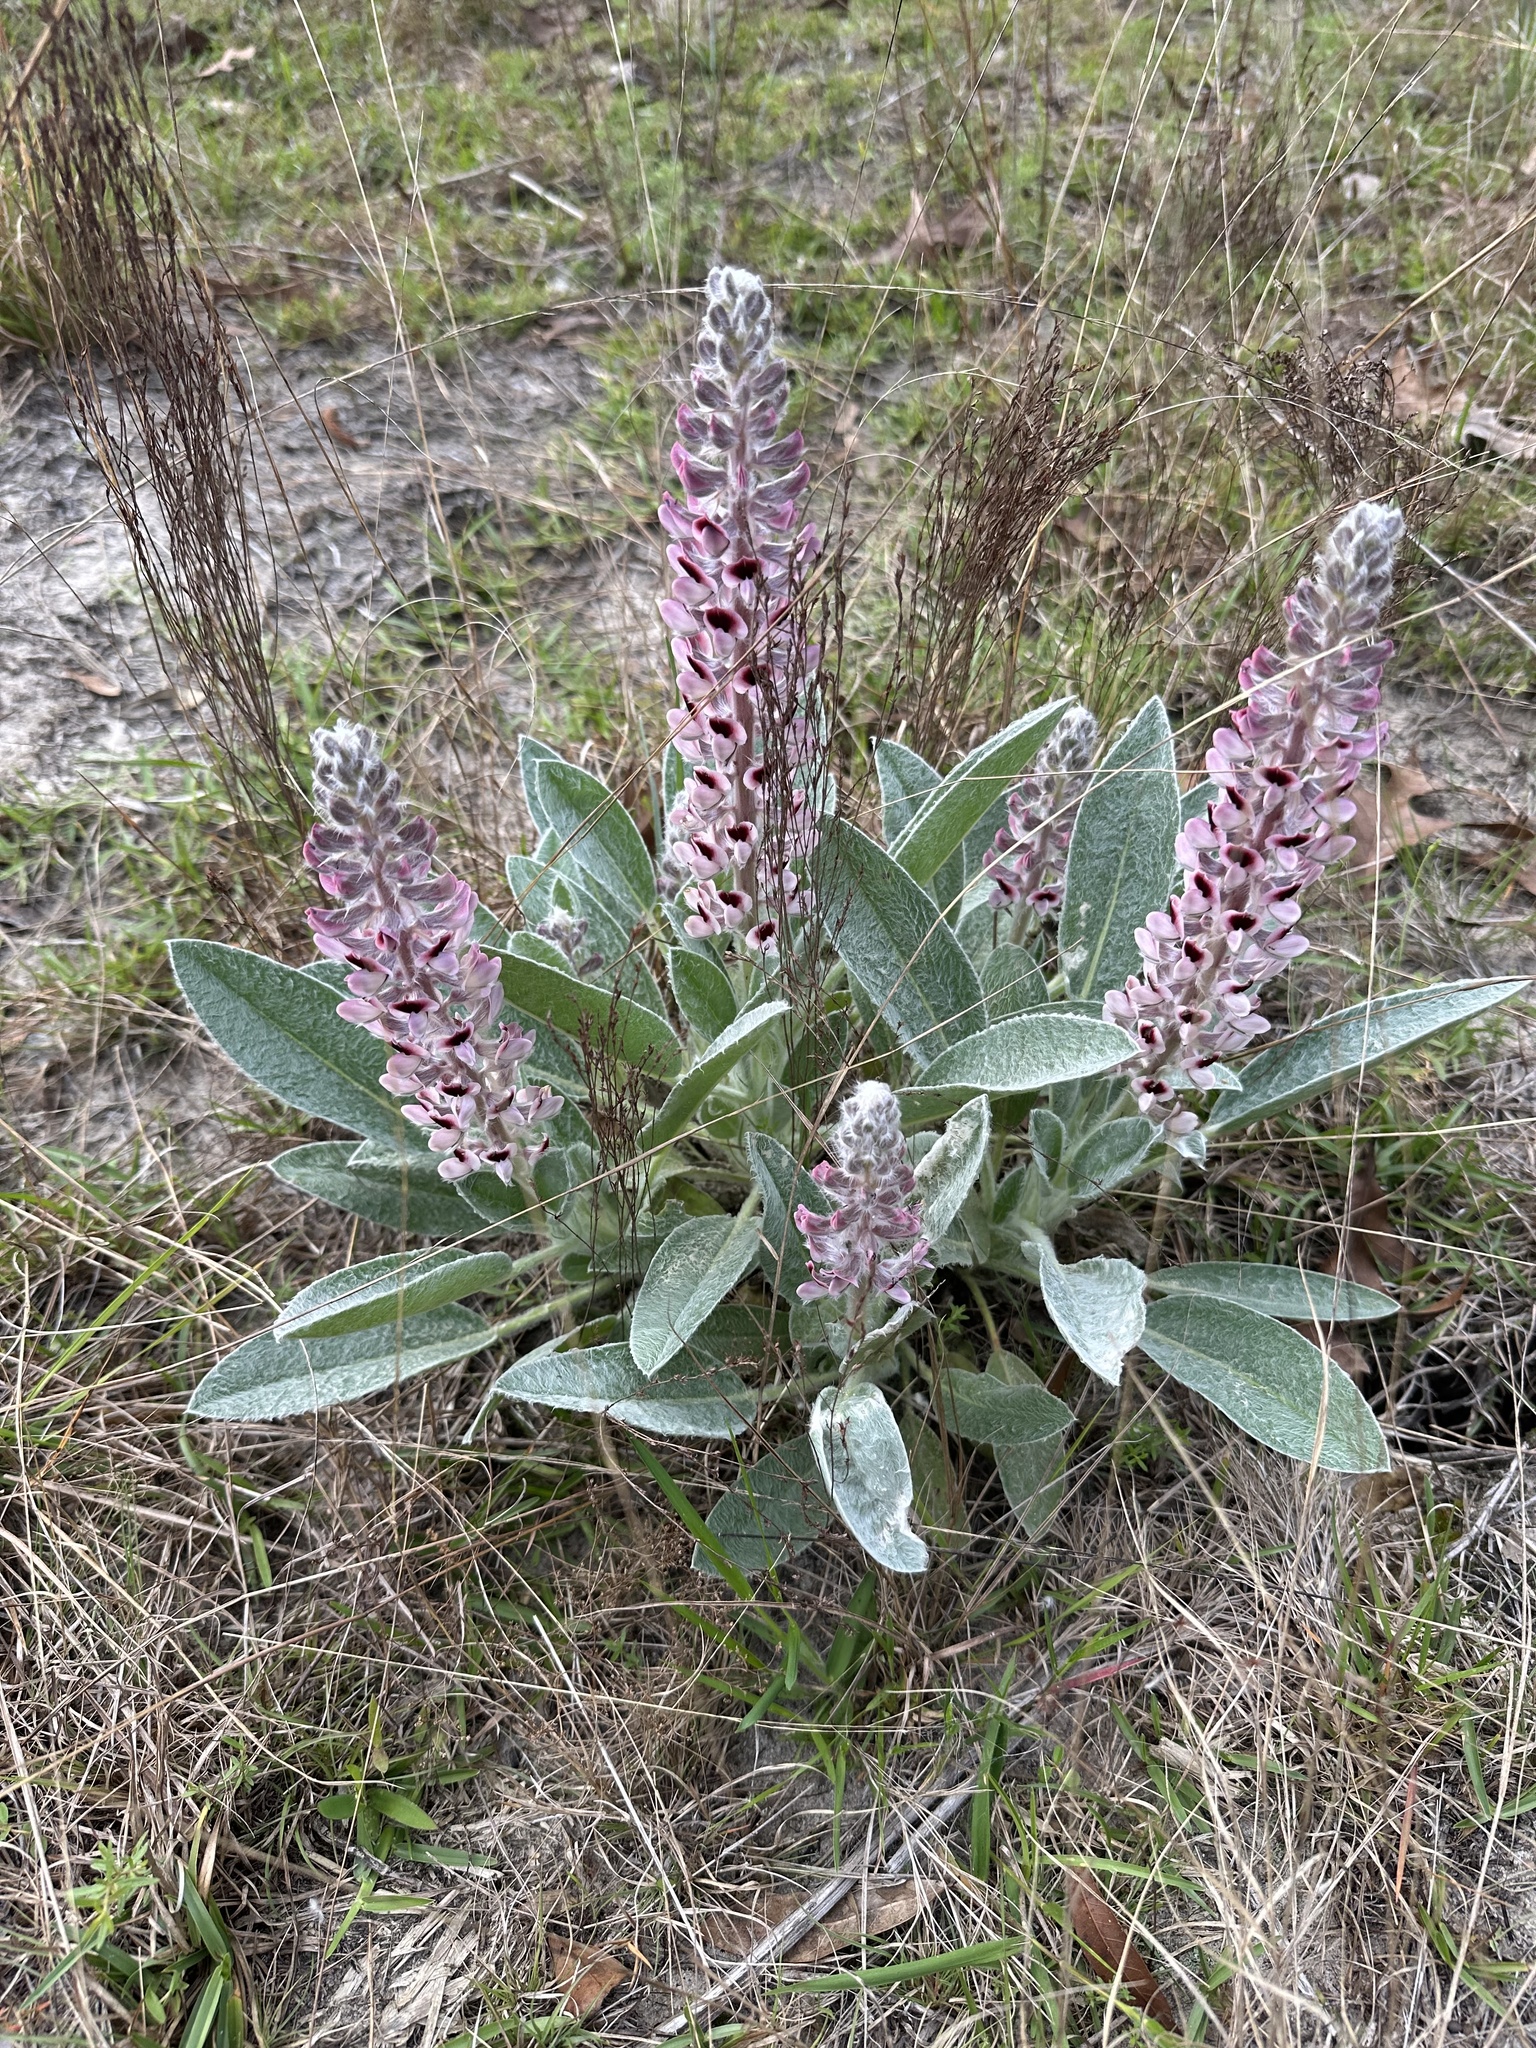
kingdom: Plantae
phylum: Tracheophyta
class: Magnoliopsida
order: Fabales
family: Fabaceae
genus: Lupinus
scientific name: Lupinus villosus
